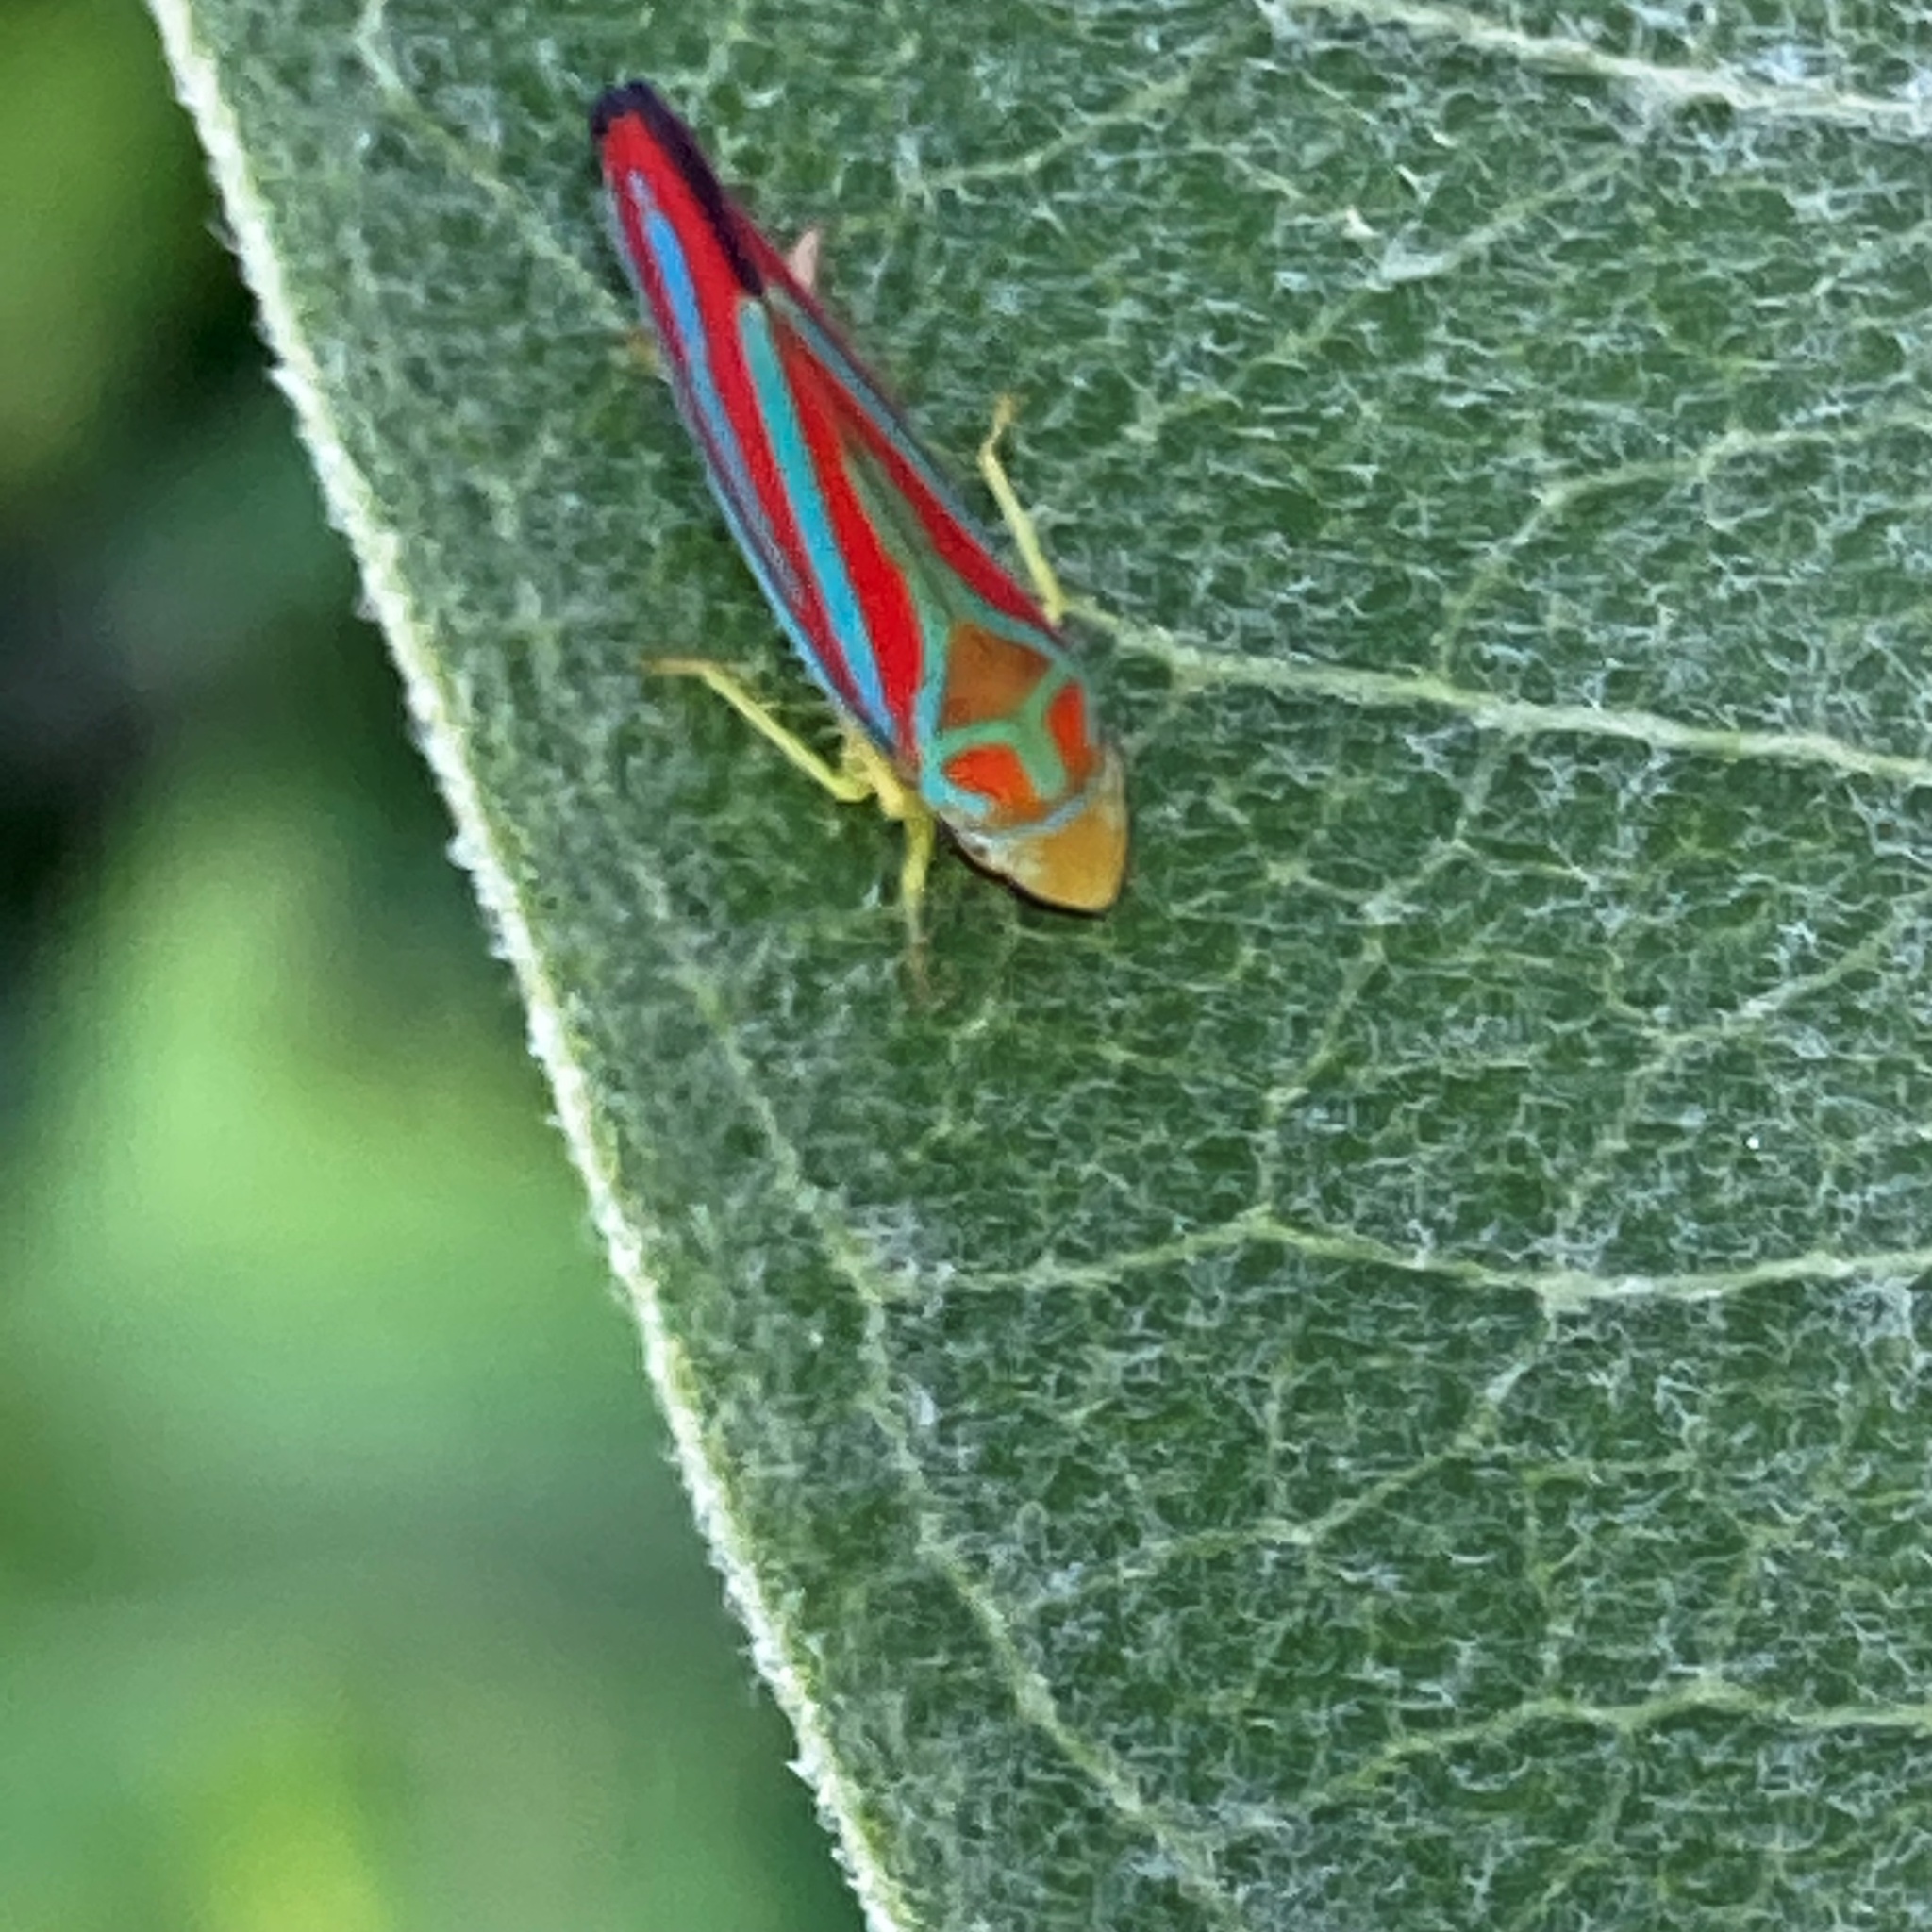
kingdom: Animalia
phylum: Arthropoda
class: Insecta
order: Hemiptera
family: Cicadellidae
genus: Graphocephala
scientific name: Graphocephala coccinea
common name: Candy-striped leafhopper
